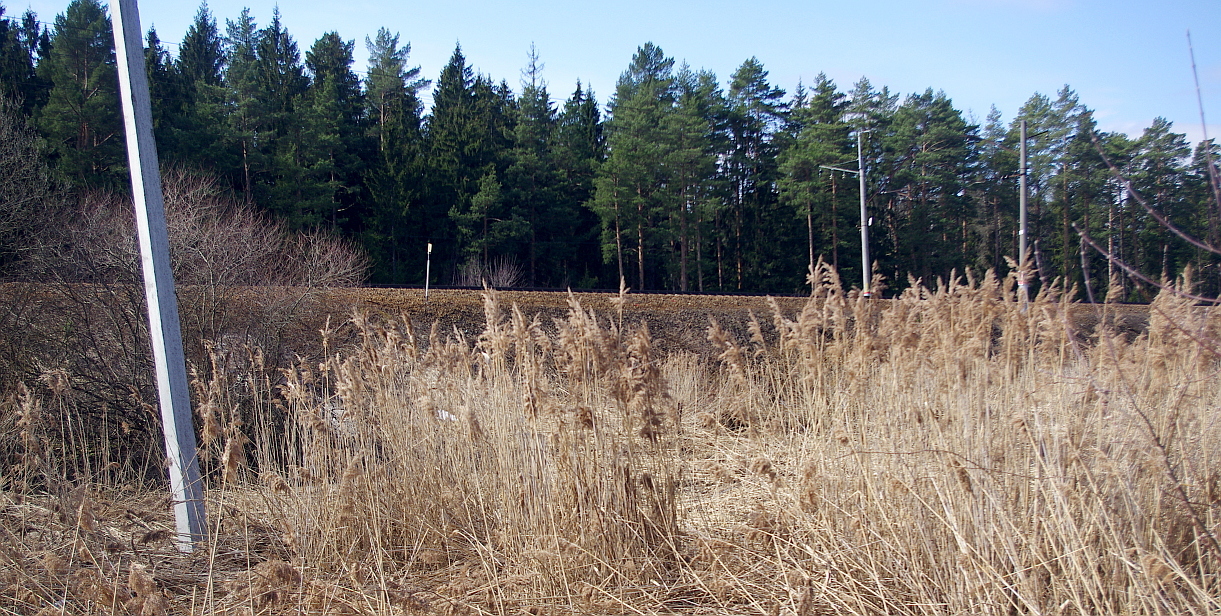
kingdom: Plantae
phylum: Tracheophyta
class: Liliopsida
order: Poales
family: Poaceae
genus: Phragmites
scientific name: Phragmites australis
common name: Common reed
